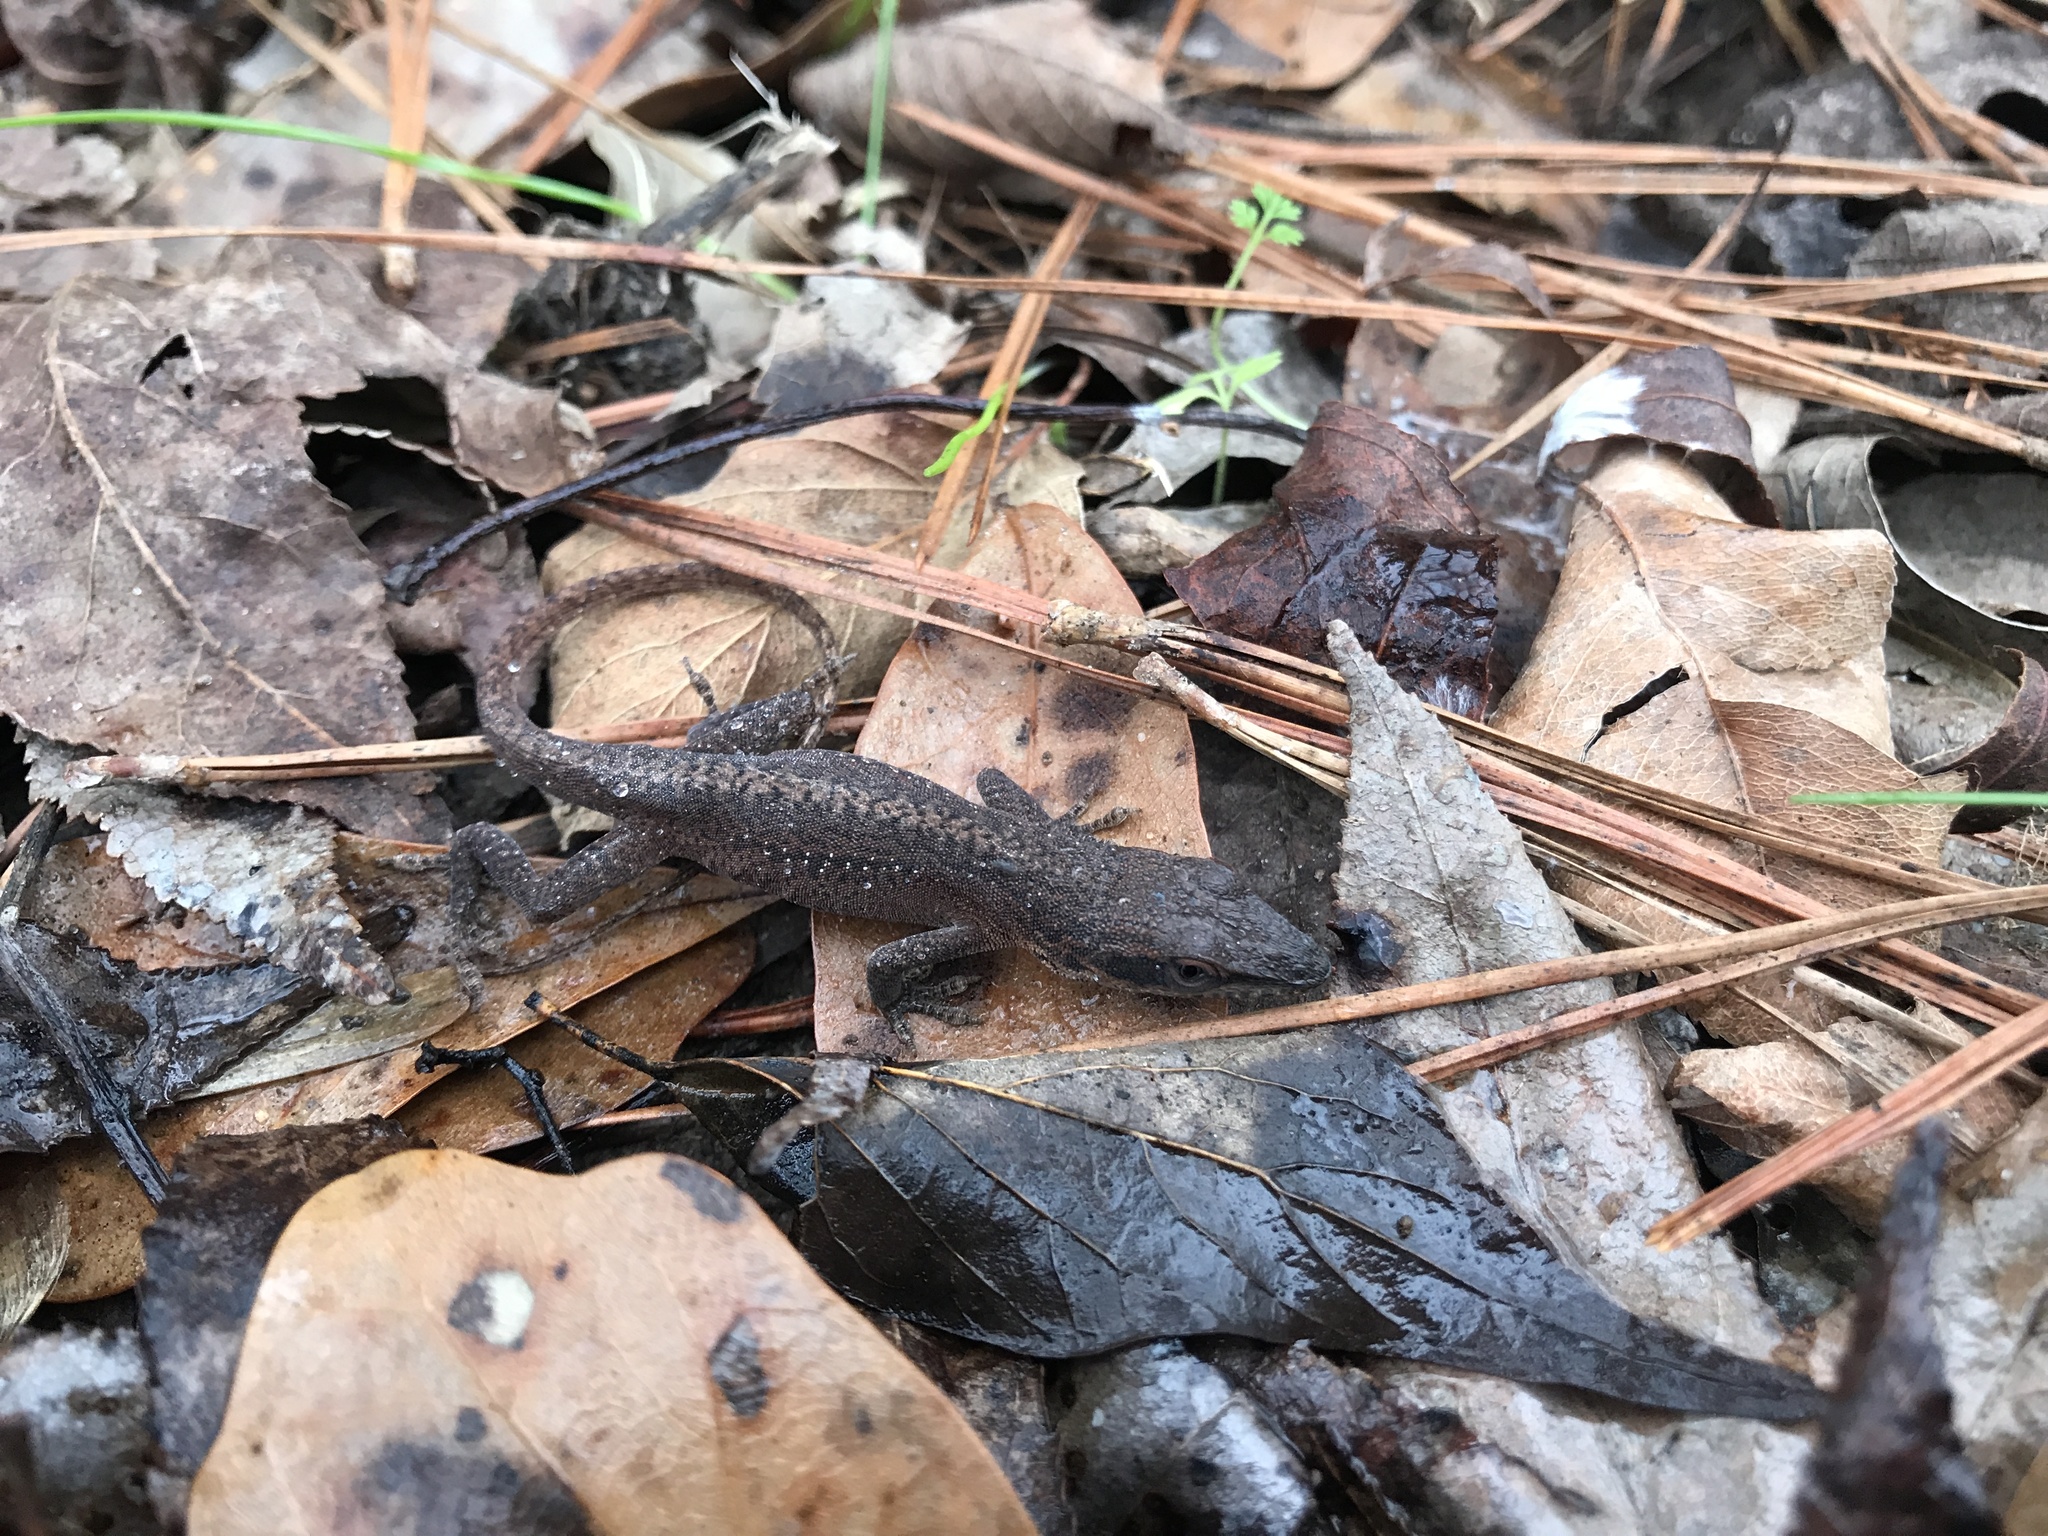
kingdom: Animalia
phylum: Chordata
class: Squamata
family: Dactyloidae
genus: Anolis
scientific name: Anolis carolinensis
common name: Green anole
